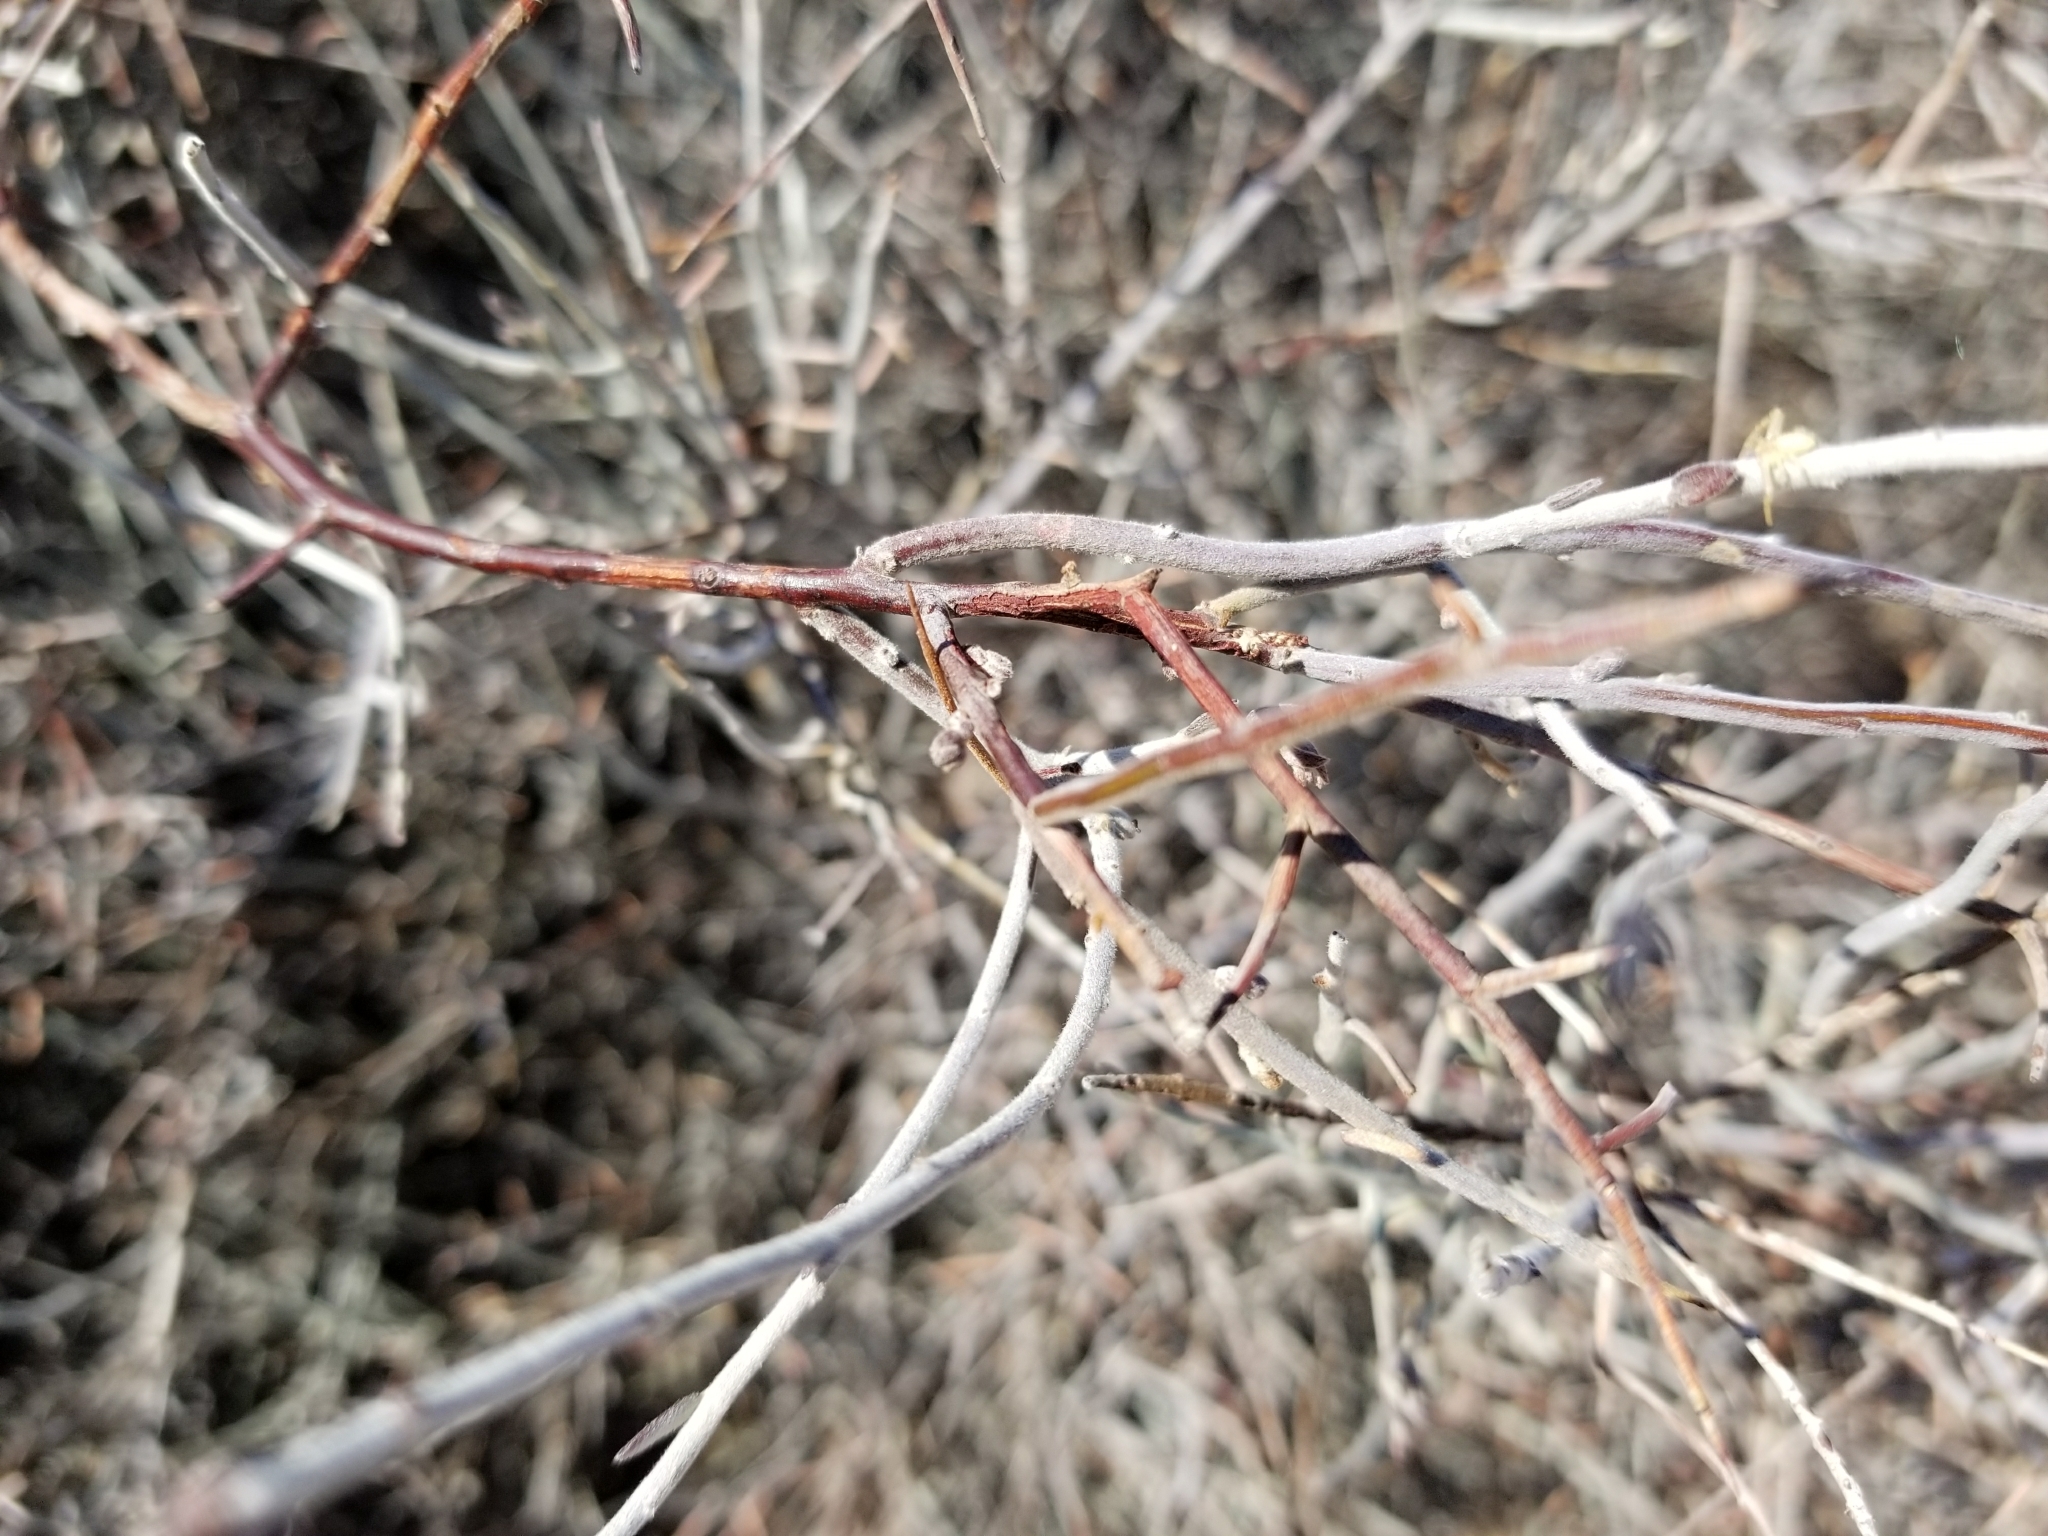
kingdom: Plantae
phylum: Tracheophyta
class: Magnoliopsida
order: Zygophyllales
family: Krameriaceae
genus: Krameria
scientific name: Krameria bicolor
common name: White ratany
